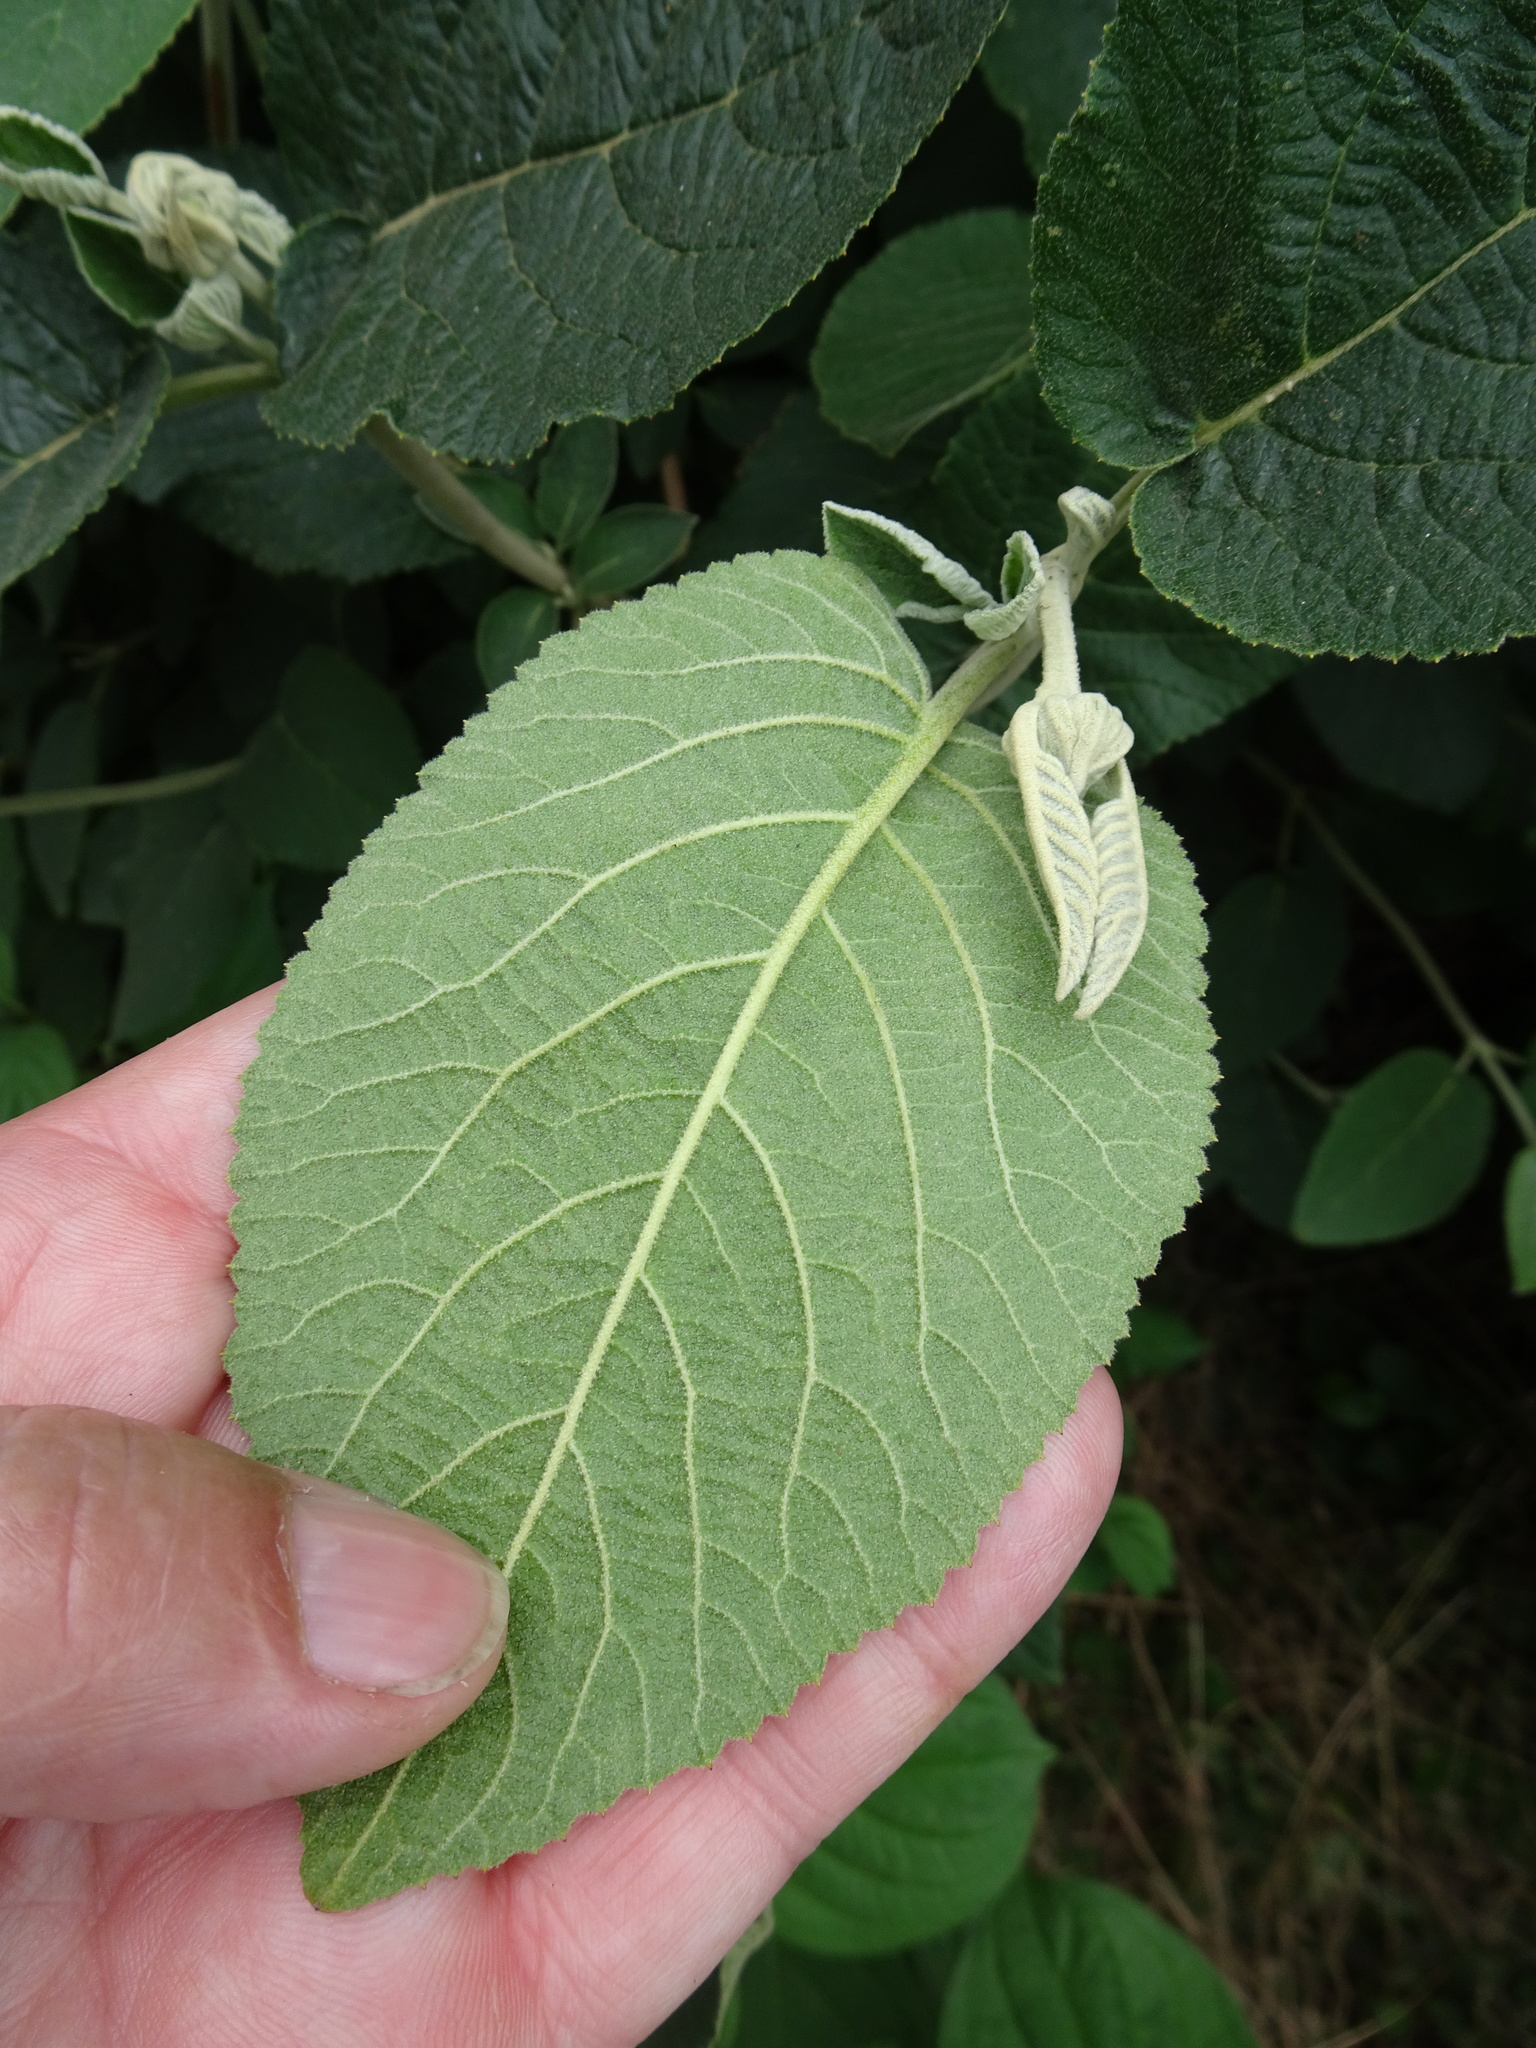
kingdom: Plantae
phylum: Tracheophyta
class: Magnoliopsida
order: Dipsacales
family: Viburnaceae
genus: Viburnum
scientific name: Viburnum lantana
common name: Wayfaring tree
